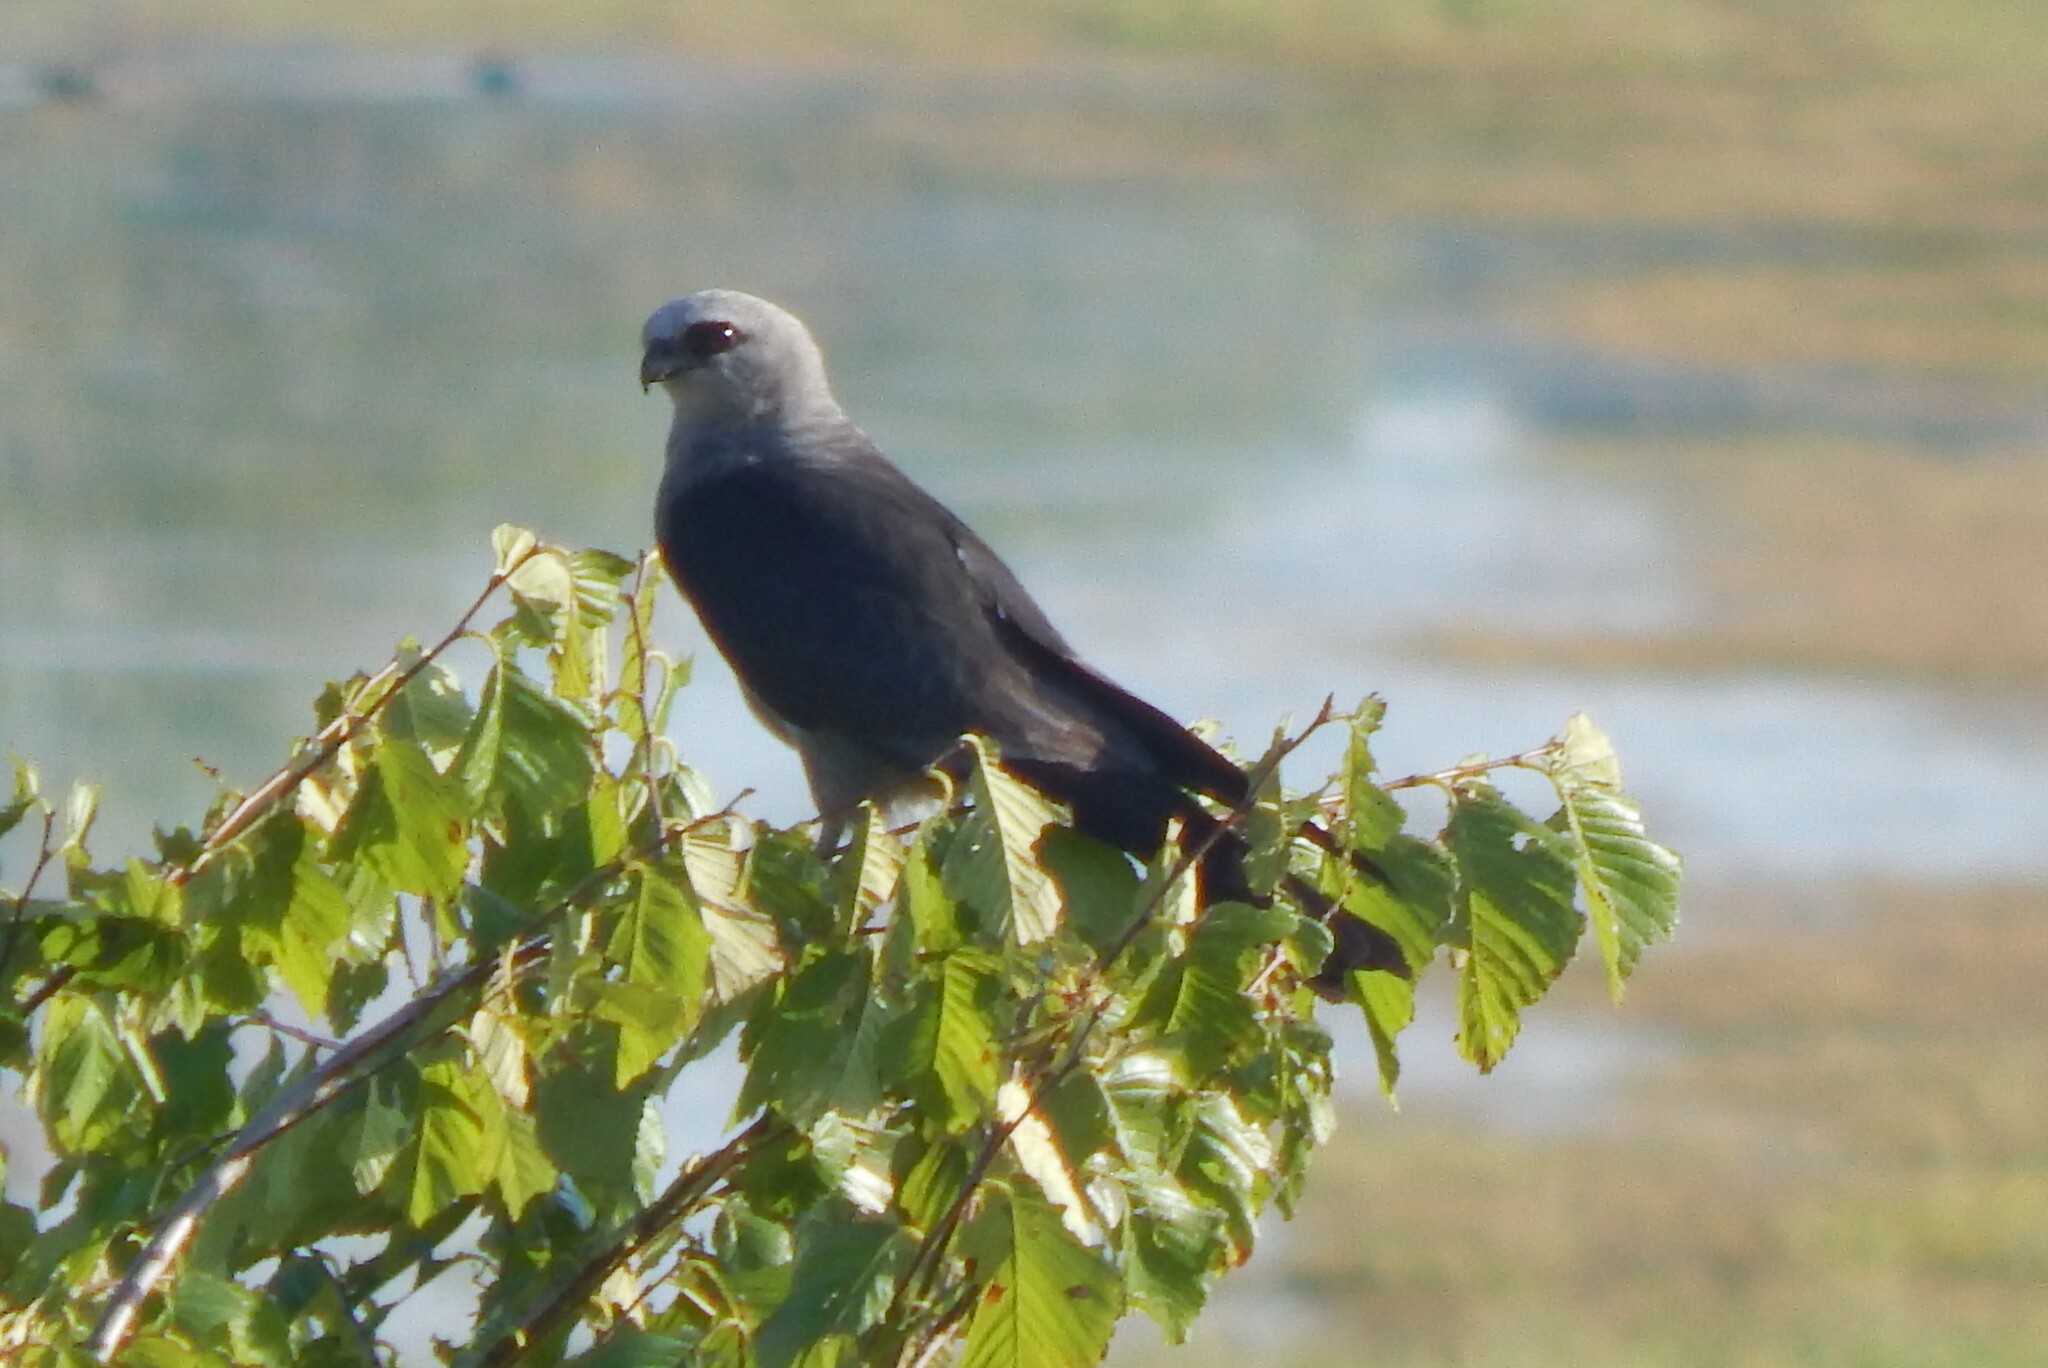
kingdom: Animalia
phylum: Chordata
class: Aves
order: Accipitriformes
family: Accipitridae
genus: Ictinia
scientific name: Ictinia mississippiensis
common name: Mississippi kite
